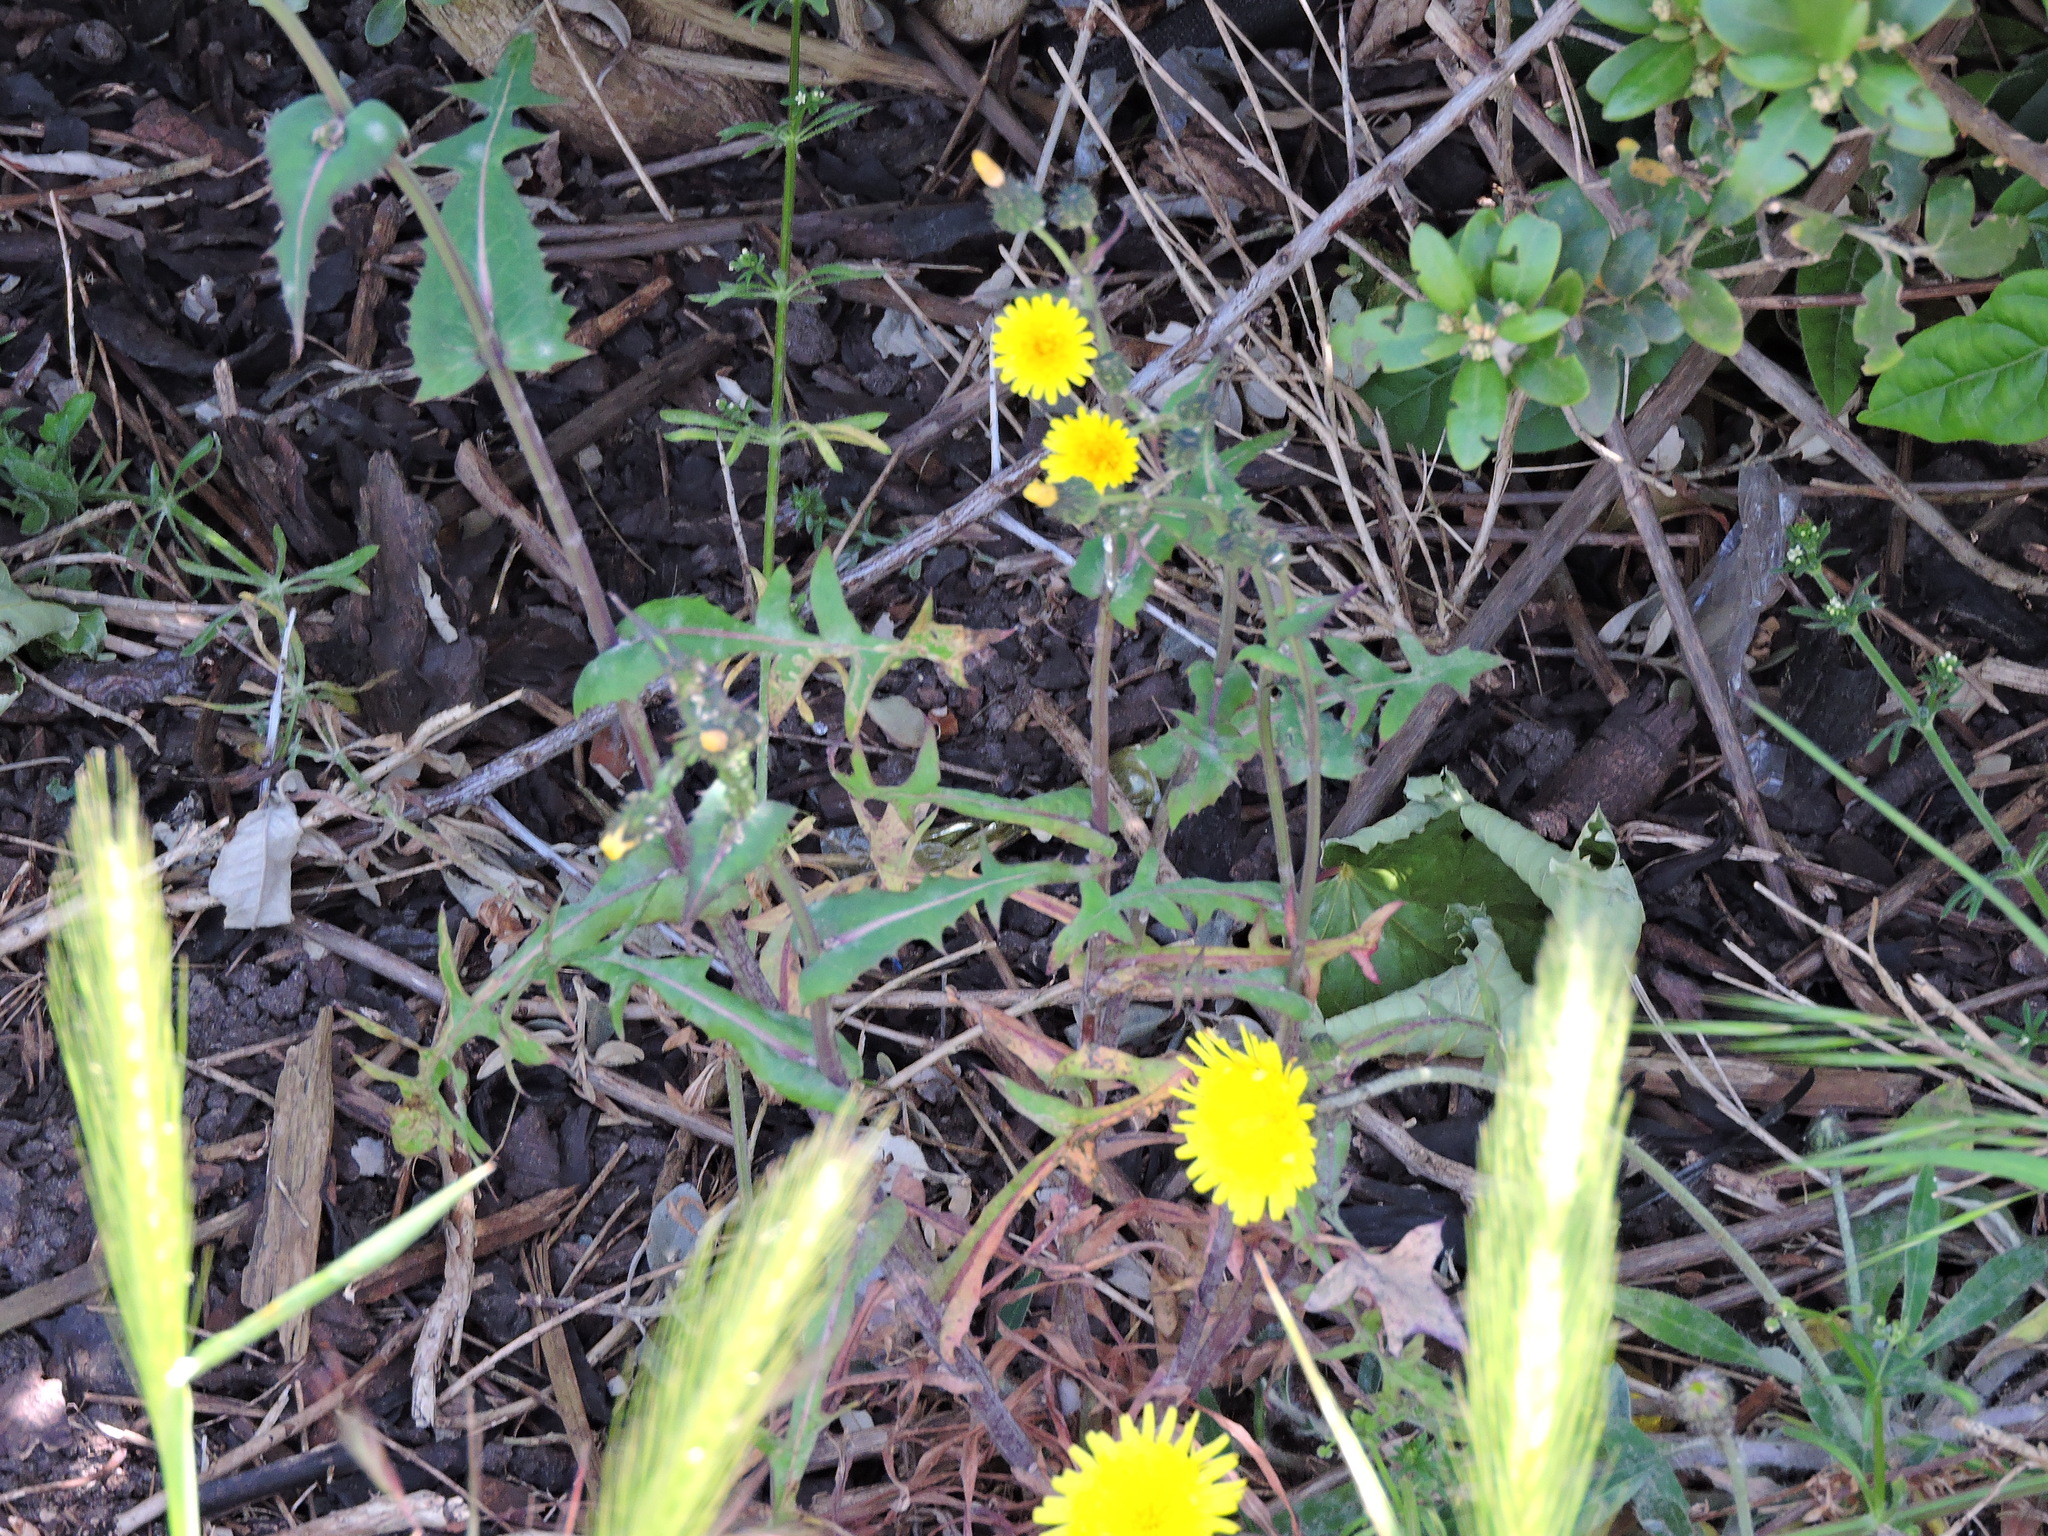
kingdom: Plantae
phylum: Tracheophyta
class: Magnoliopsida
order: Asterales
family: Asteraceae
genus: Sonchus
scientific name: Sonchus oleraceus
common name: Common sowthistle
